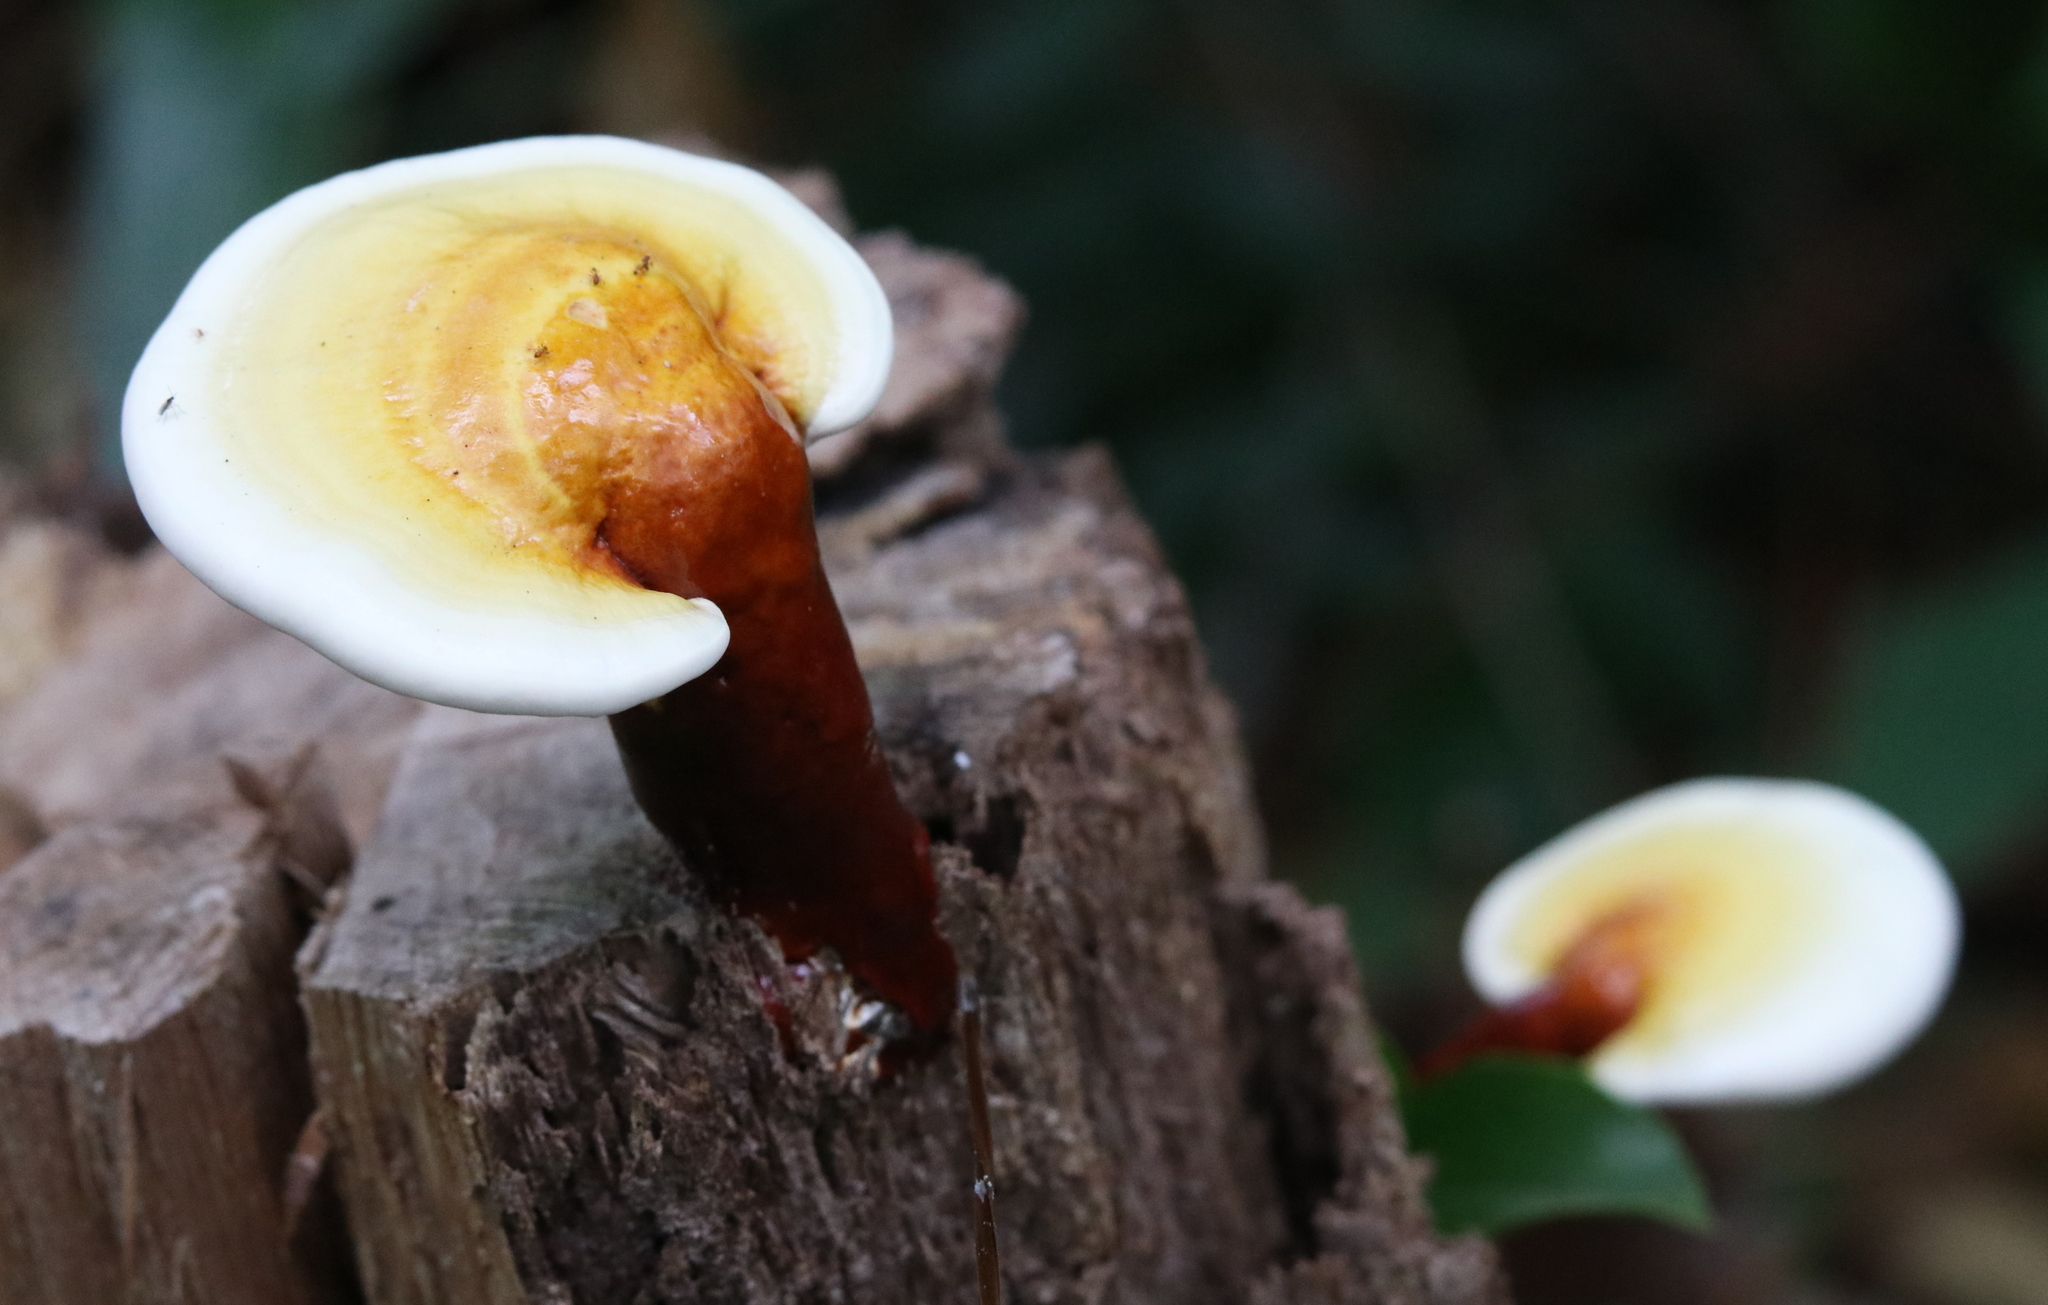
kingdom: Fungi
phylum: Basidiomycota
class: Agaricomycetes
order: Polyporales
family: Polyporaceae
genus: Ganoderma
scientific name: Ganoderma curtisii
